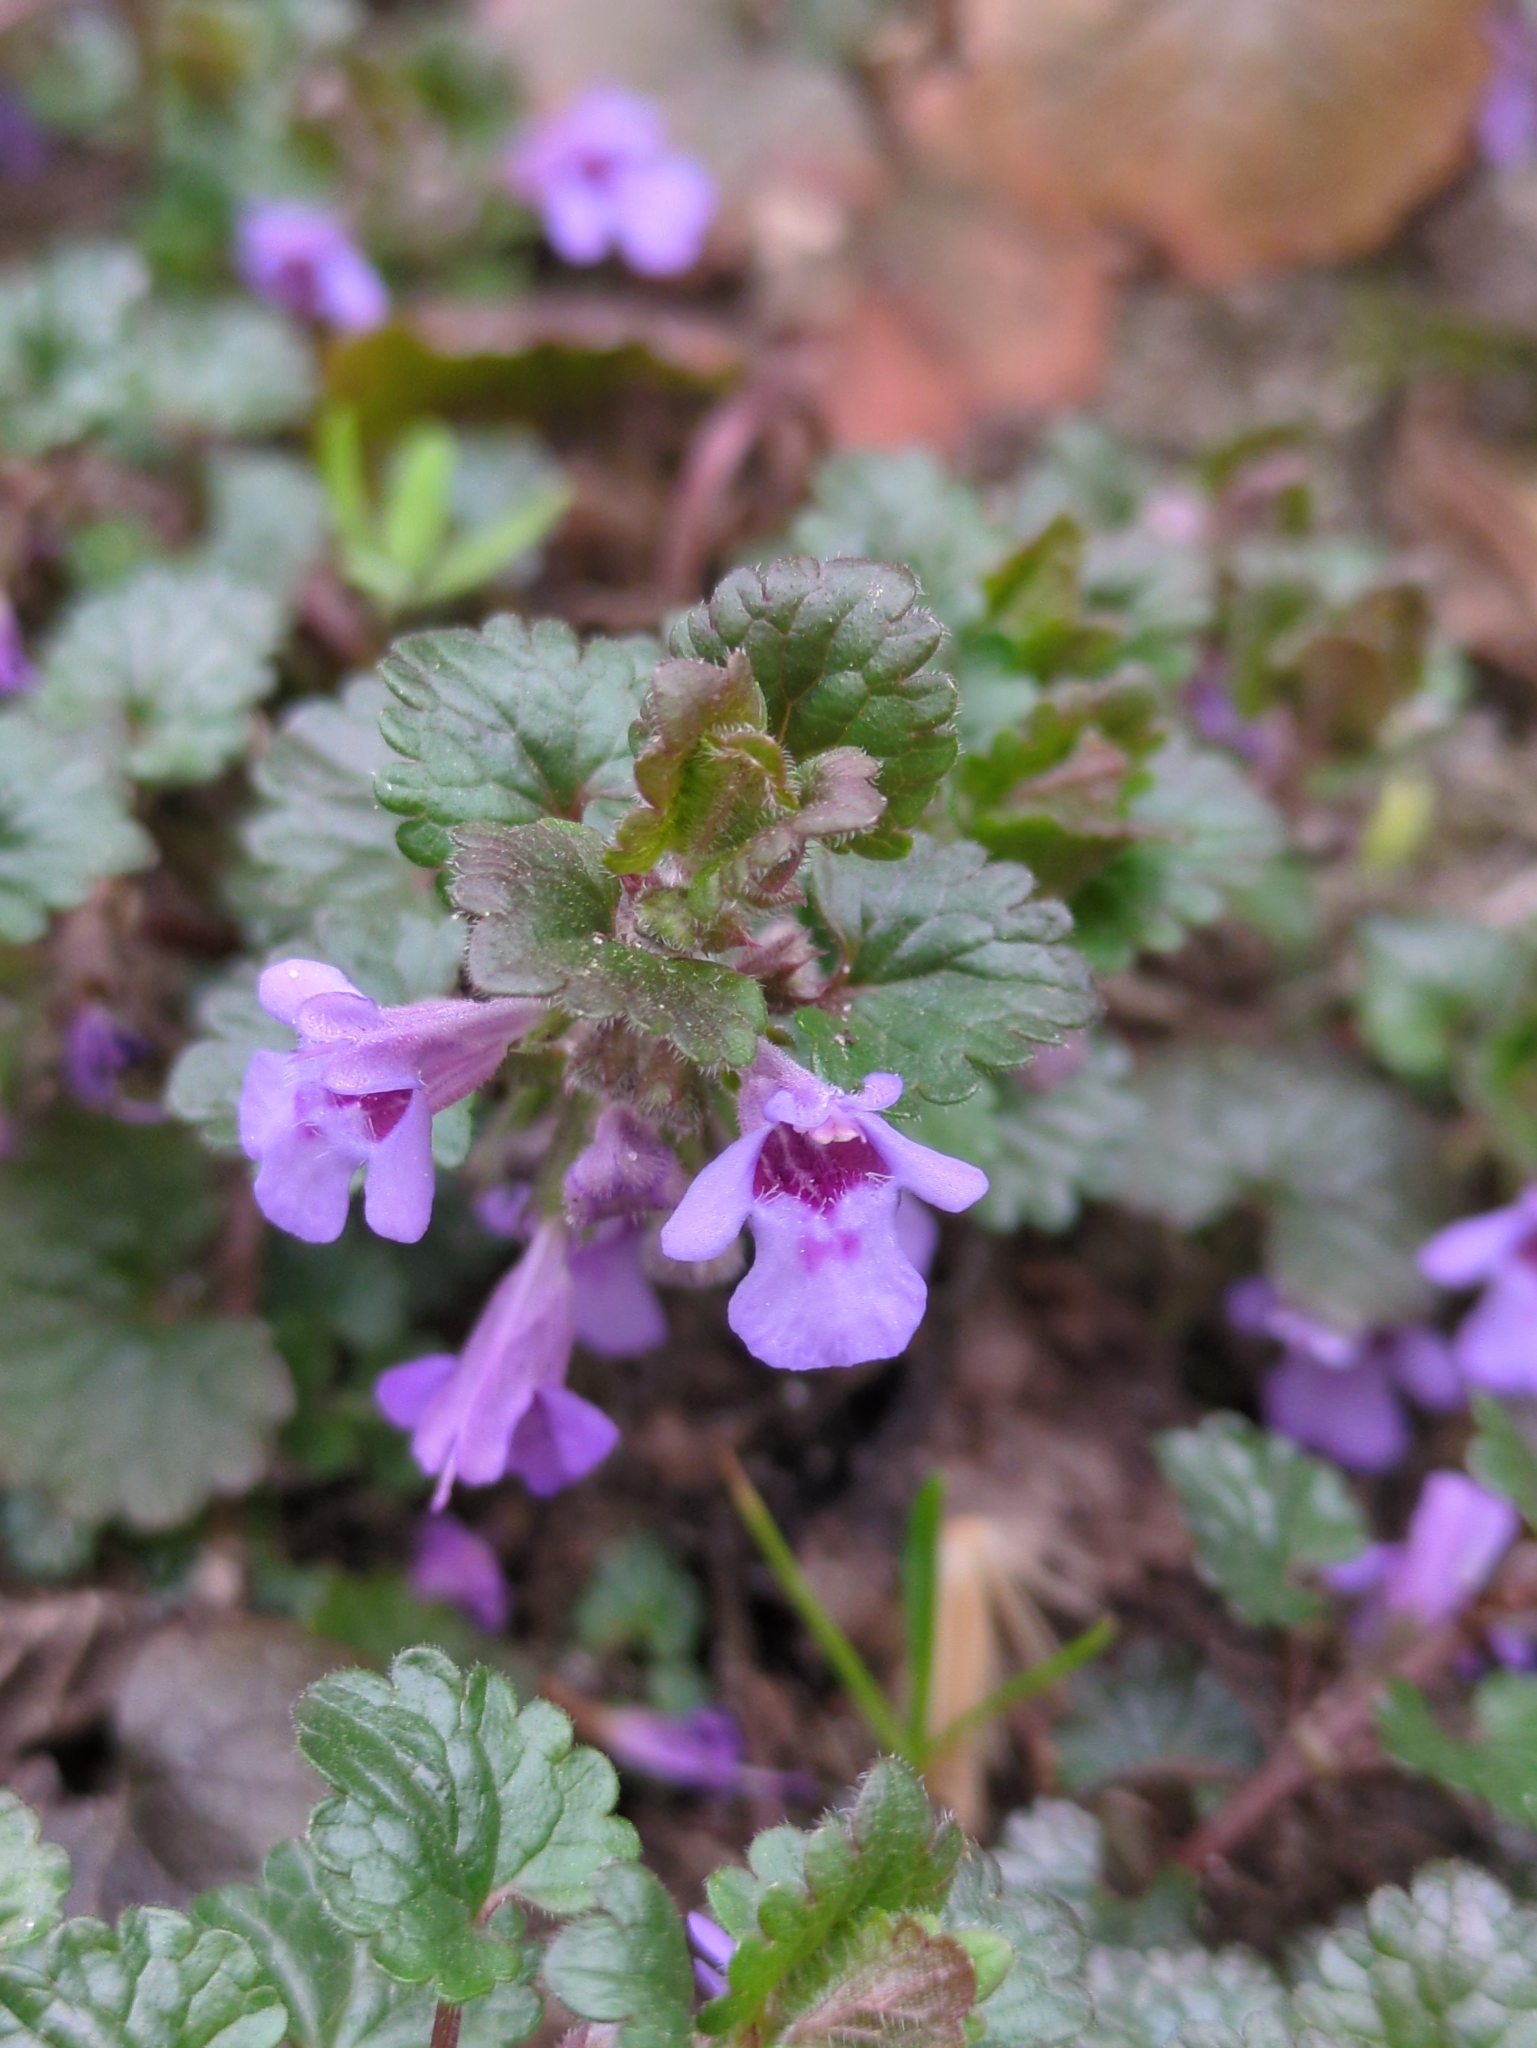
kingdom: Plantae
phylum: Tracheophyta
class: Magnoliopsida
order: Lamiales
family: Lamiaceae
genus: Glechoma
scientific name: Glechoma hederacea
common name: Ground ivy
